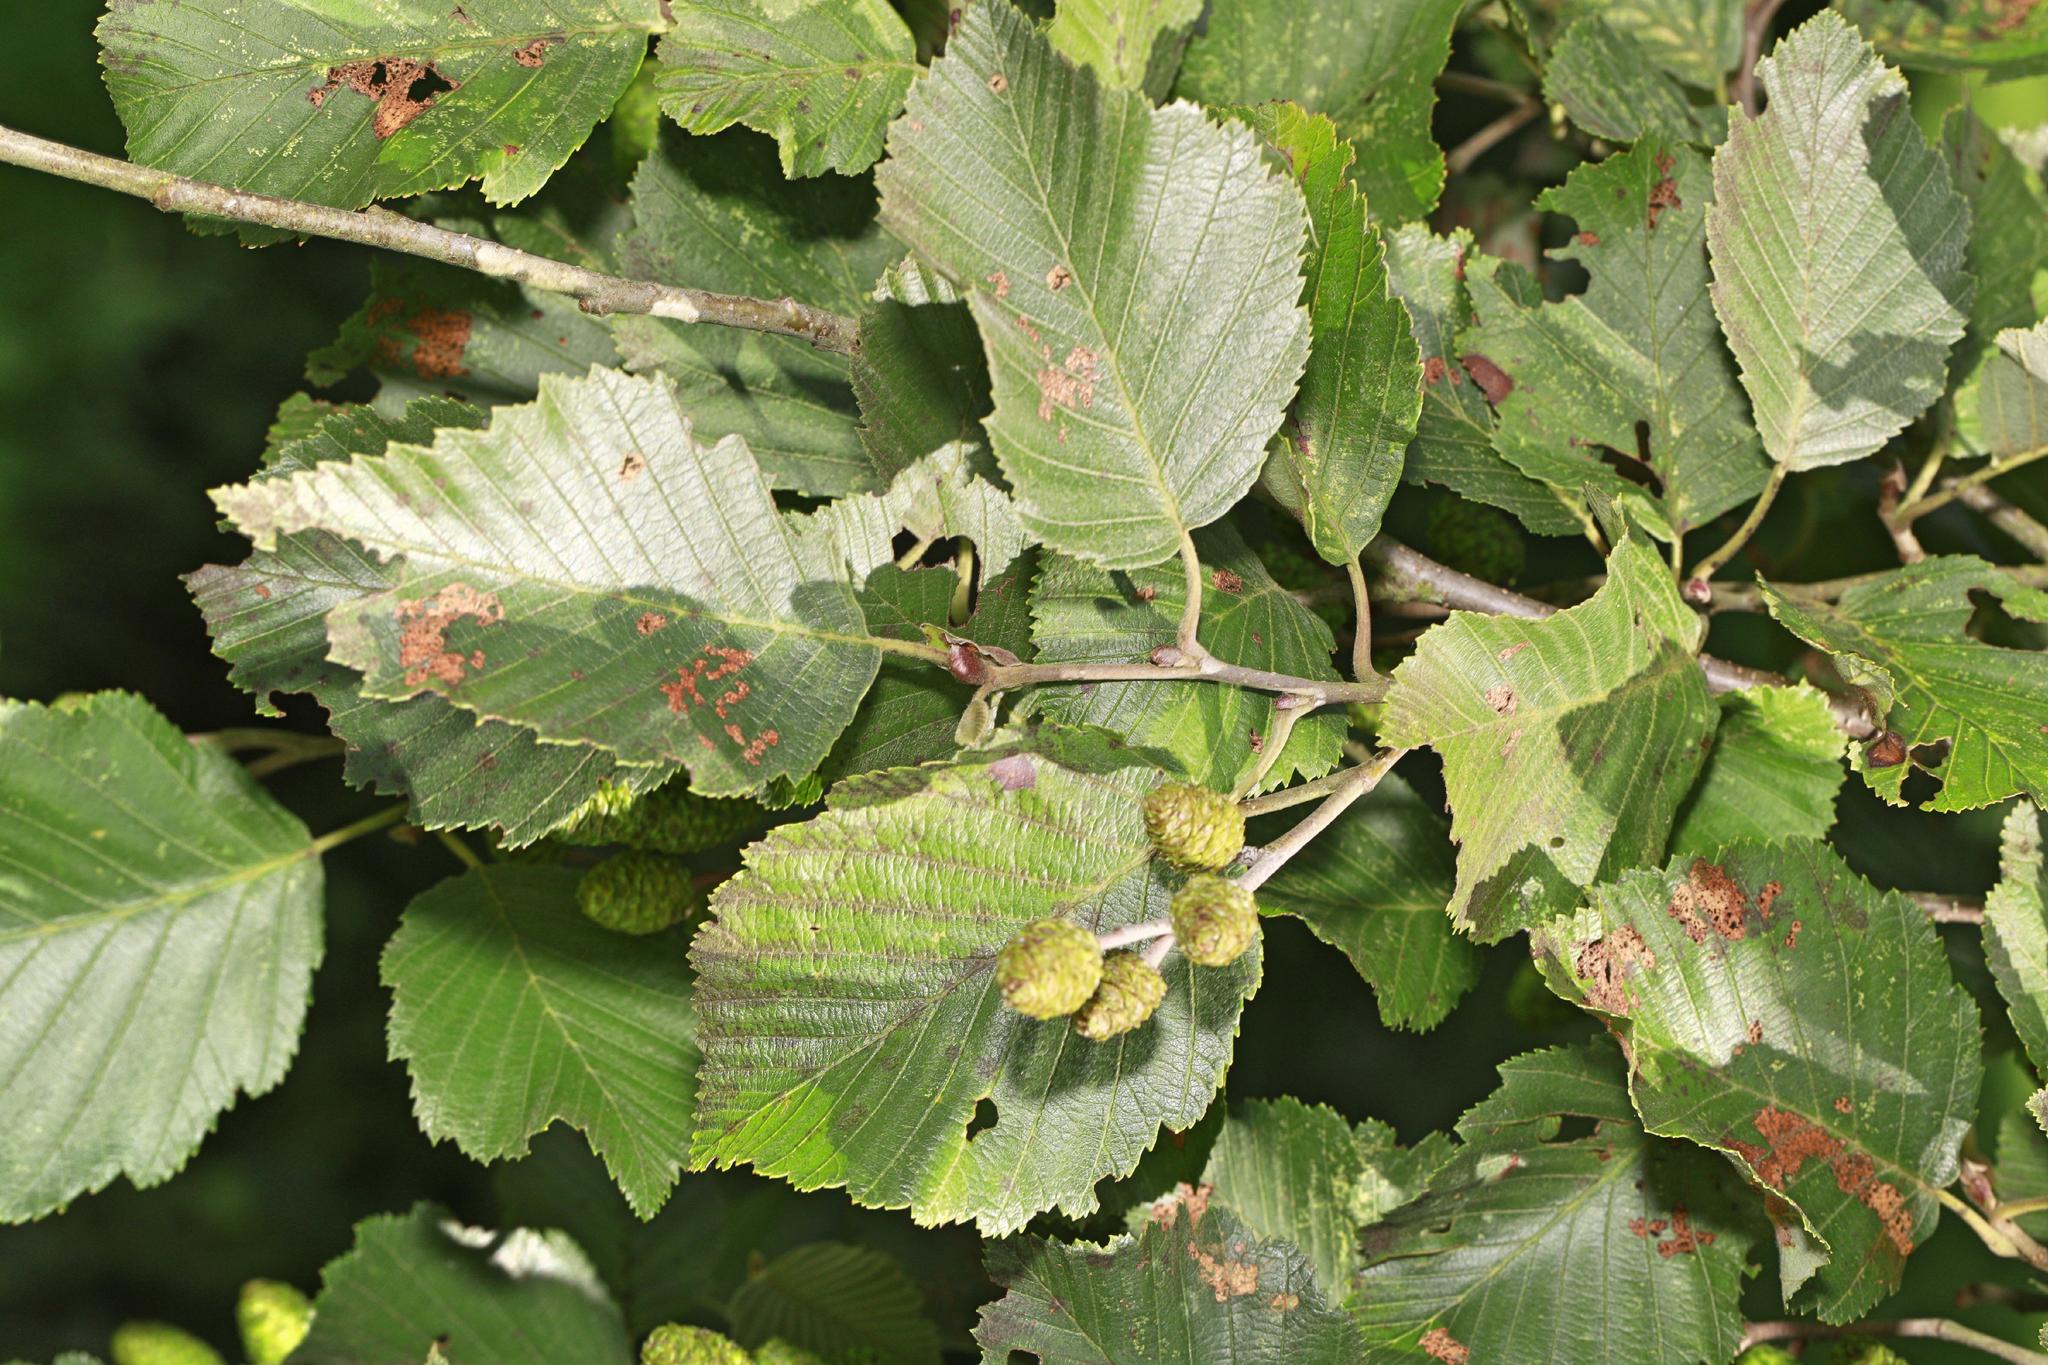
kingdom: Plantae
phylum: Tracheophyta
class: Magnoliopsida
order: Fagales
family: Betulaceae
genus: Alnus
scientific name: Alnus incana
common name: Grey alder
